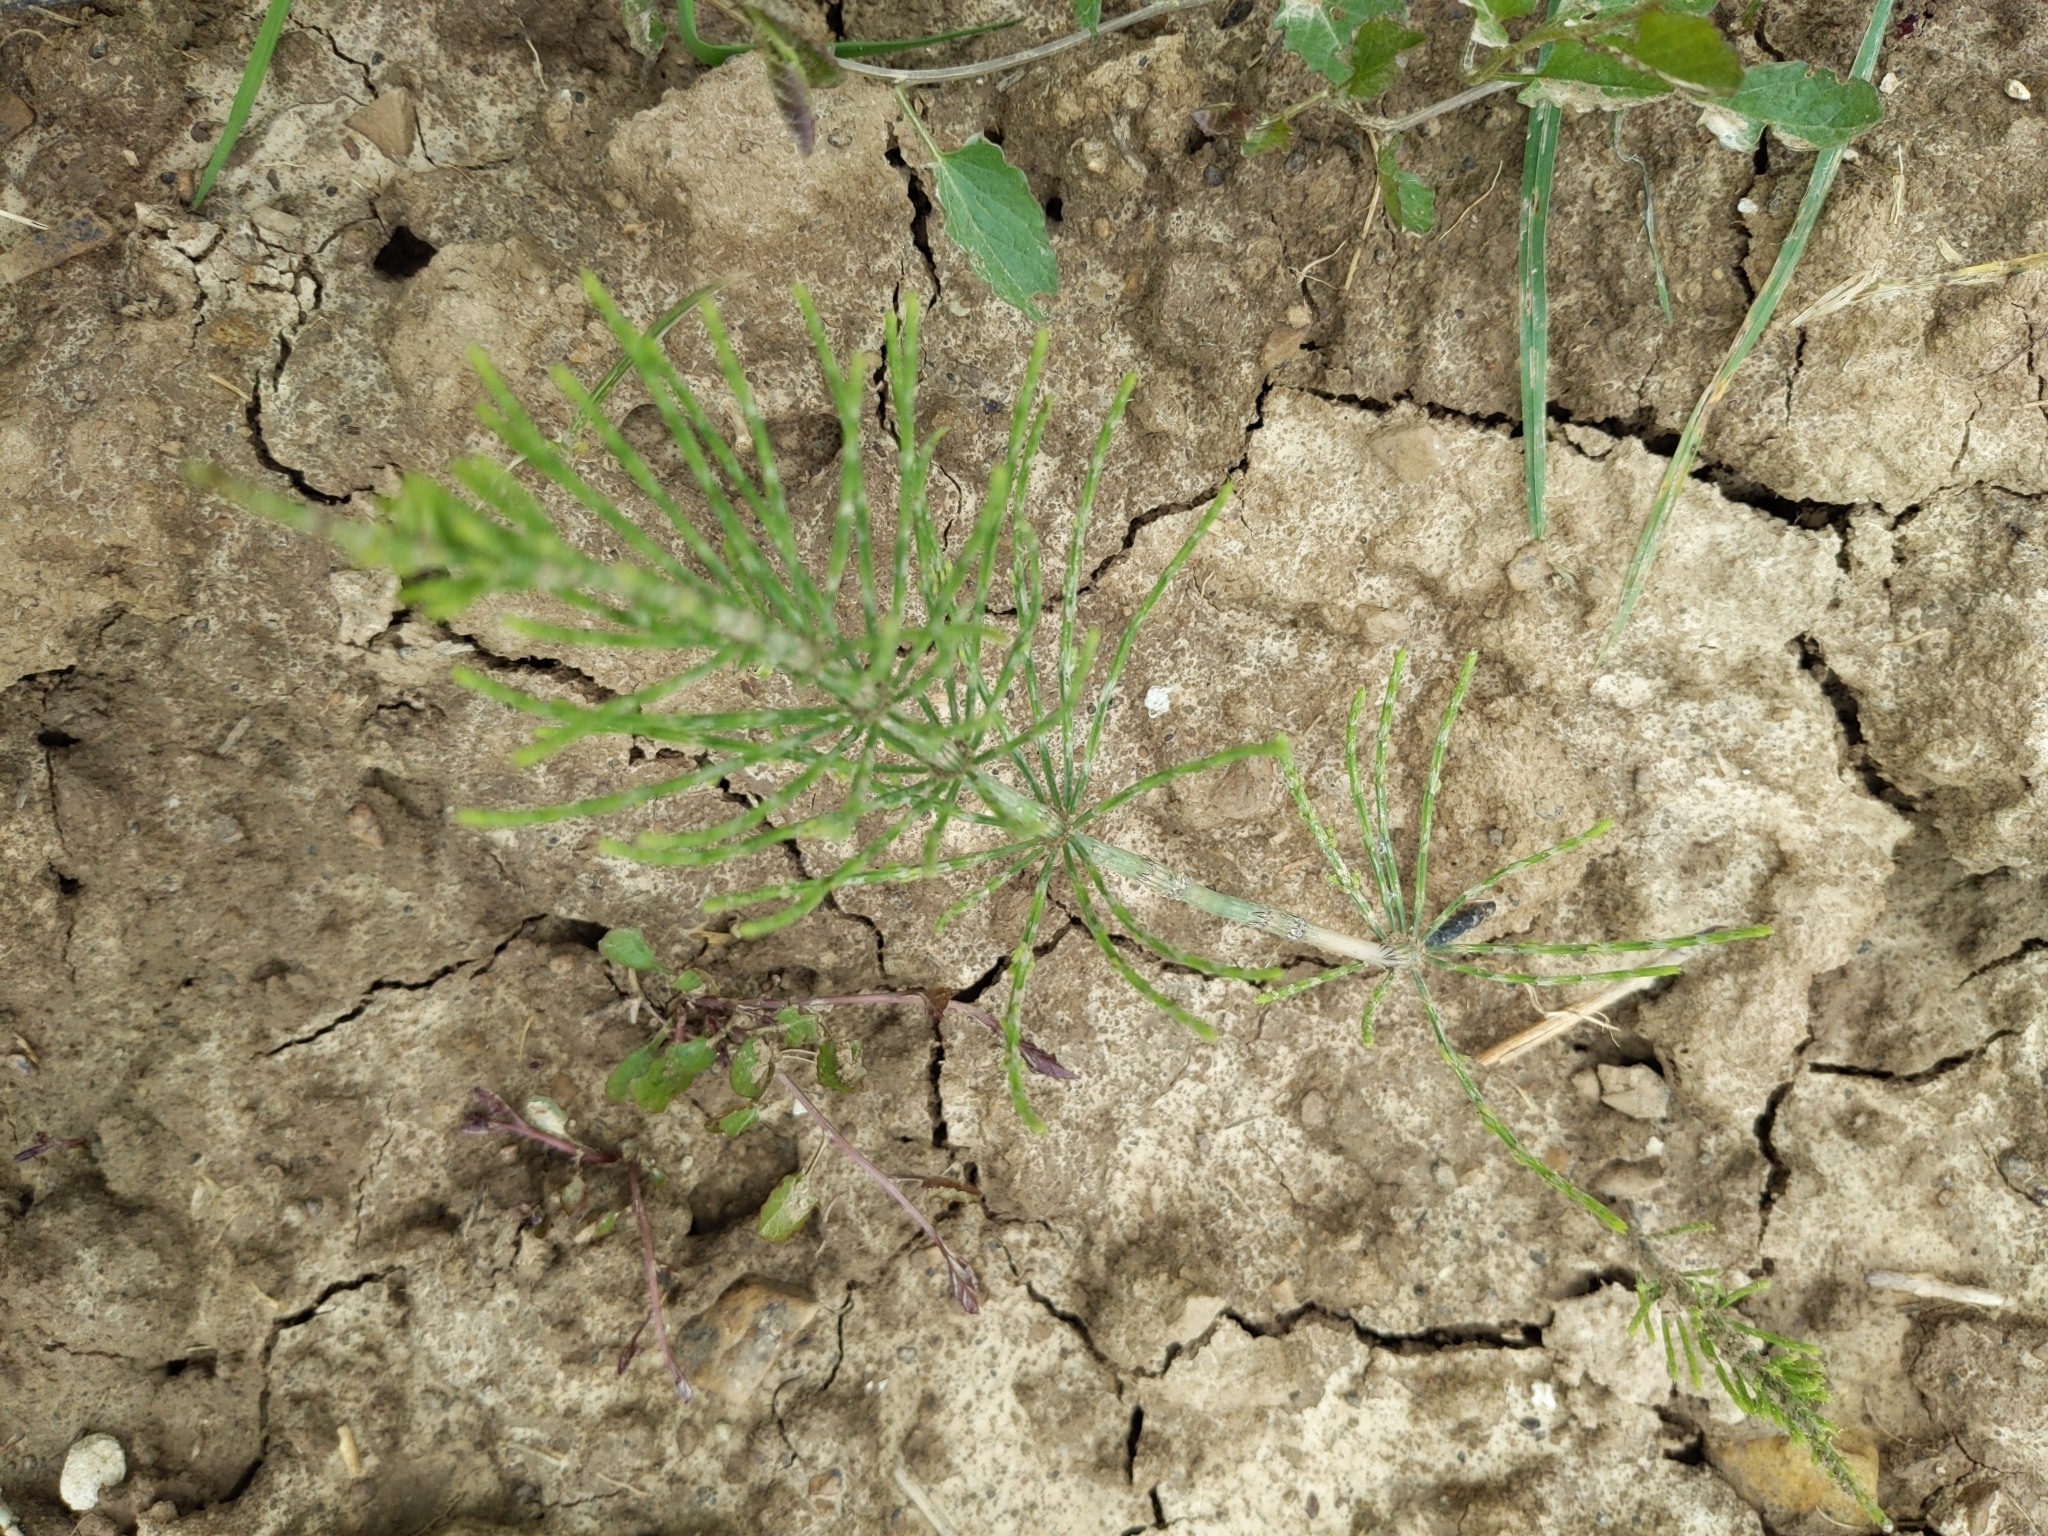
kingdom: Plantae
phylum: Tracheophyta
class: Polypodiopsida
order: Equisetales
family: Equisetaceae
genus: Equisetum
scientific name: Equisetum arvense
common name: Field horsetail
